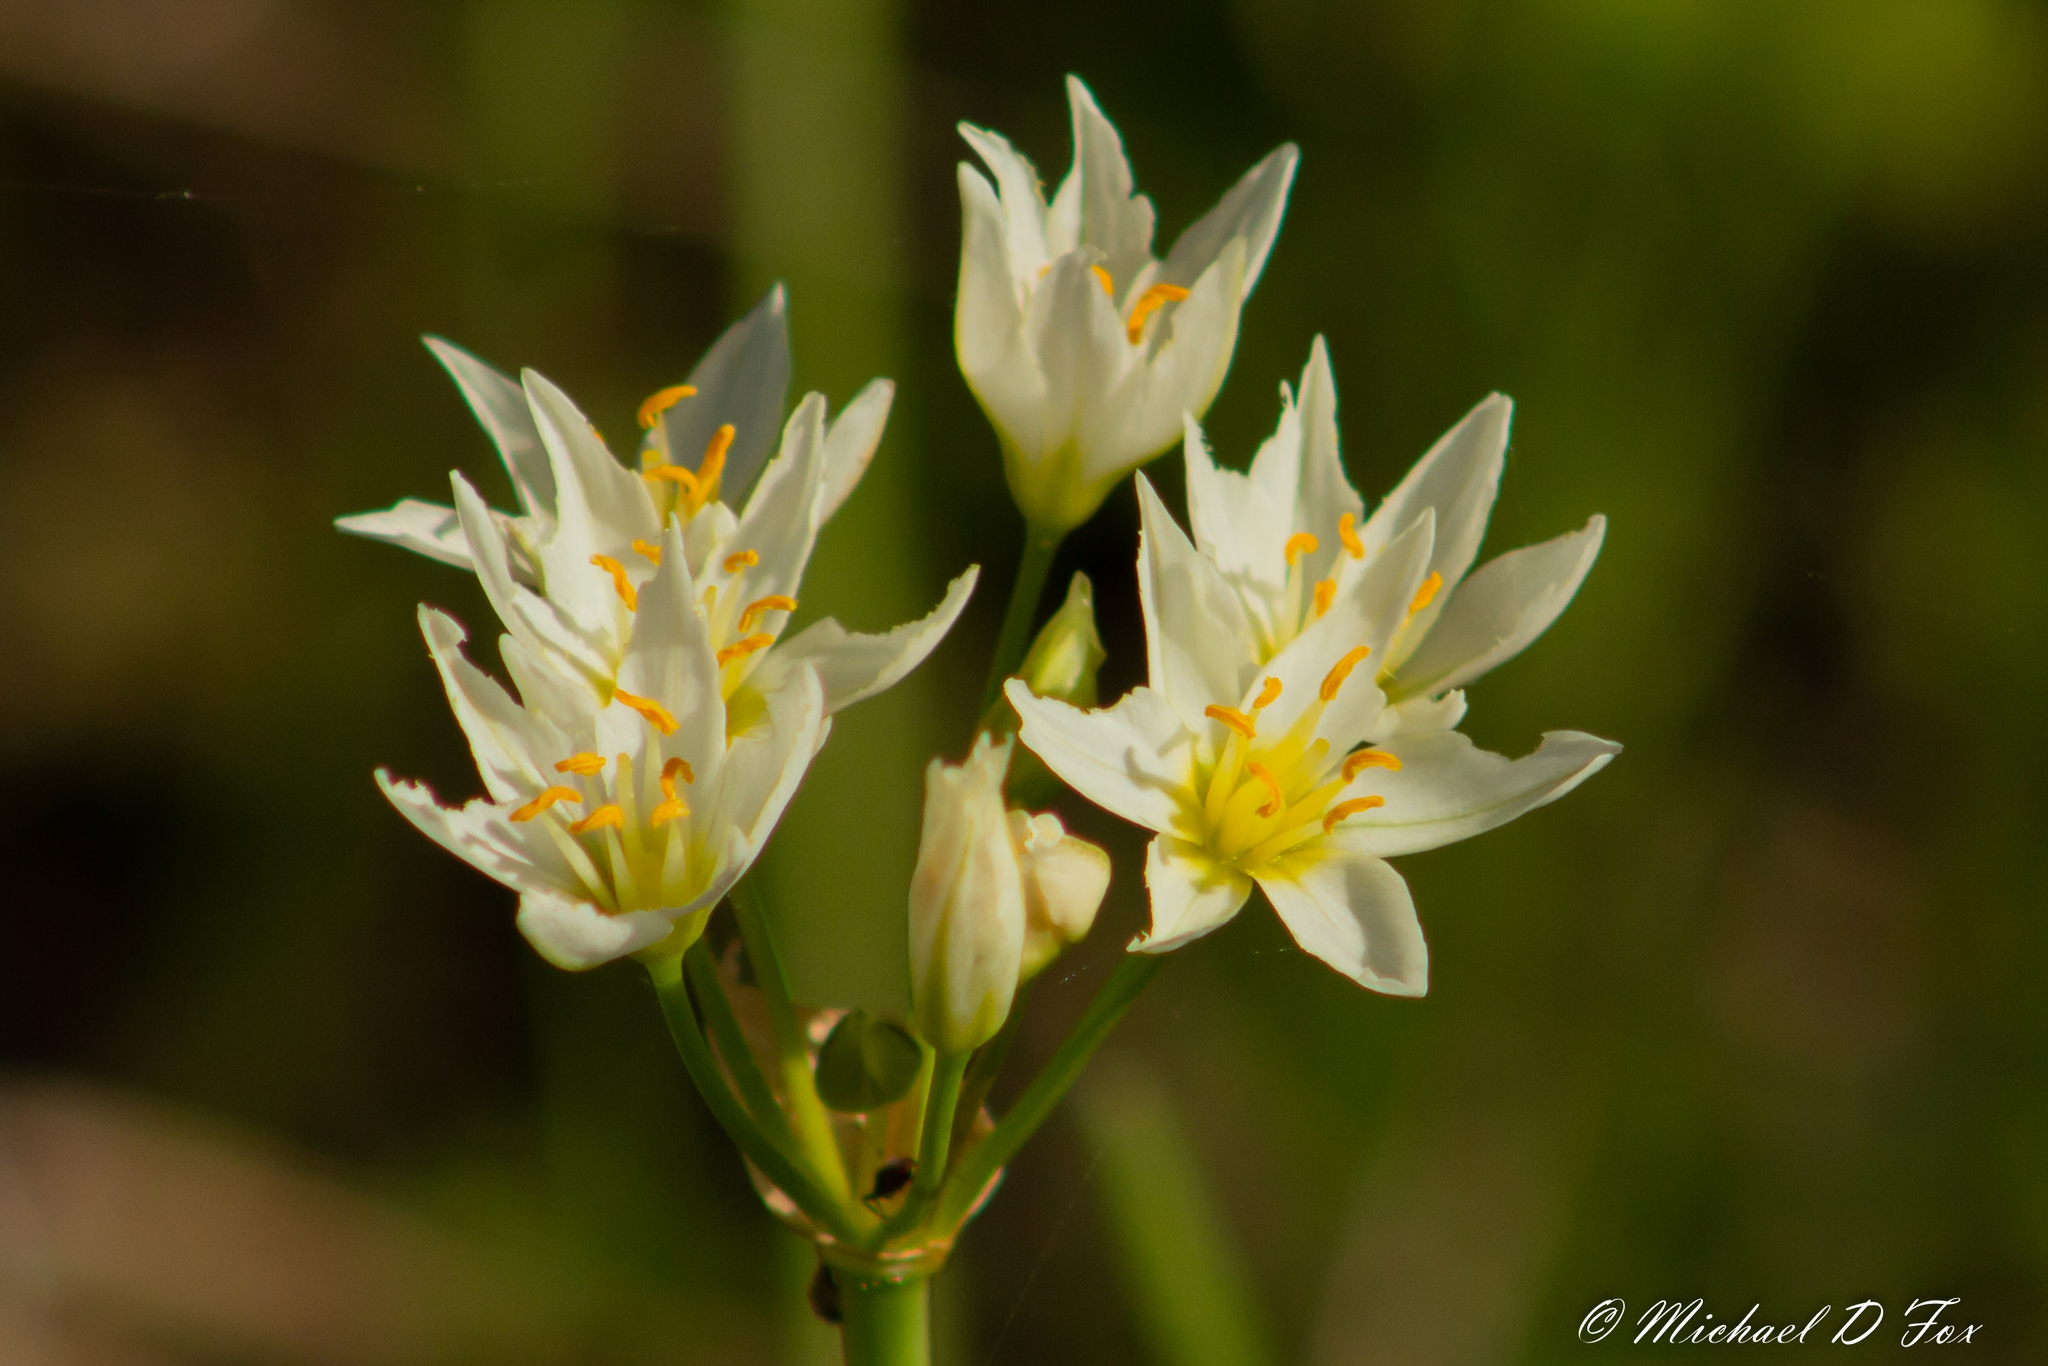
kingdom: Plantae
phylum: Tracheophyta
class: Liliopsida
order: Asparagales
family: Amaryllidaceae
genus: Nothoscordum
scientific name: Nothoscordum bivalve
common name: Crow-poison
